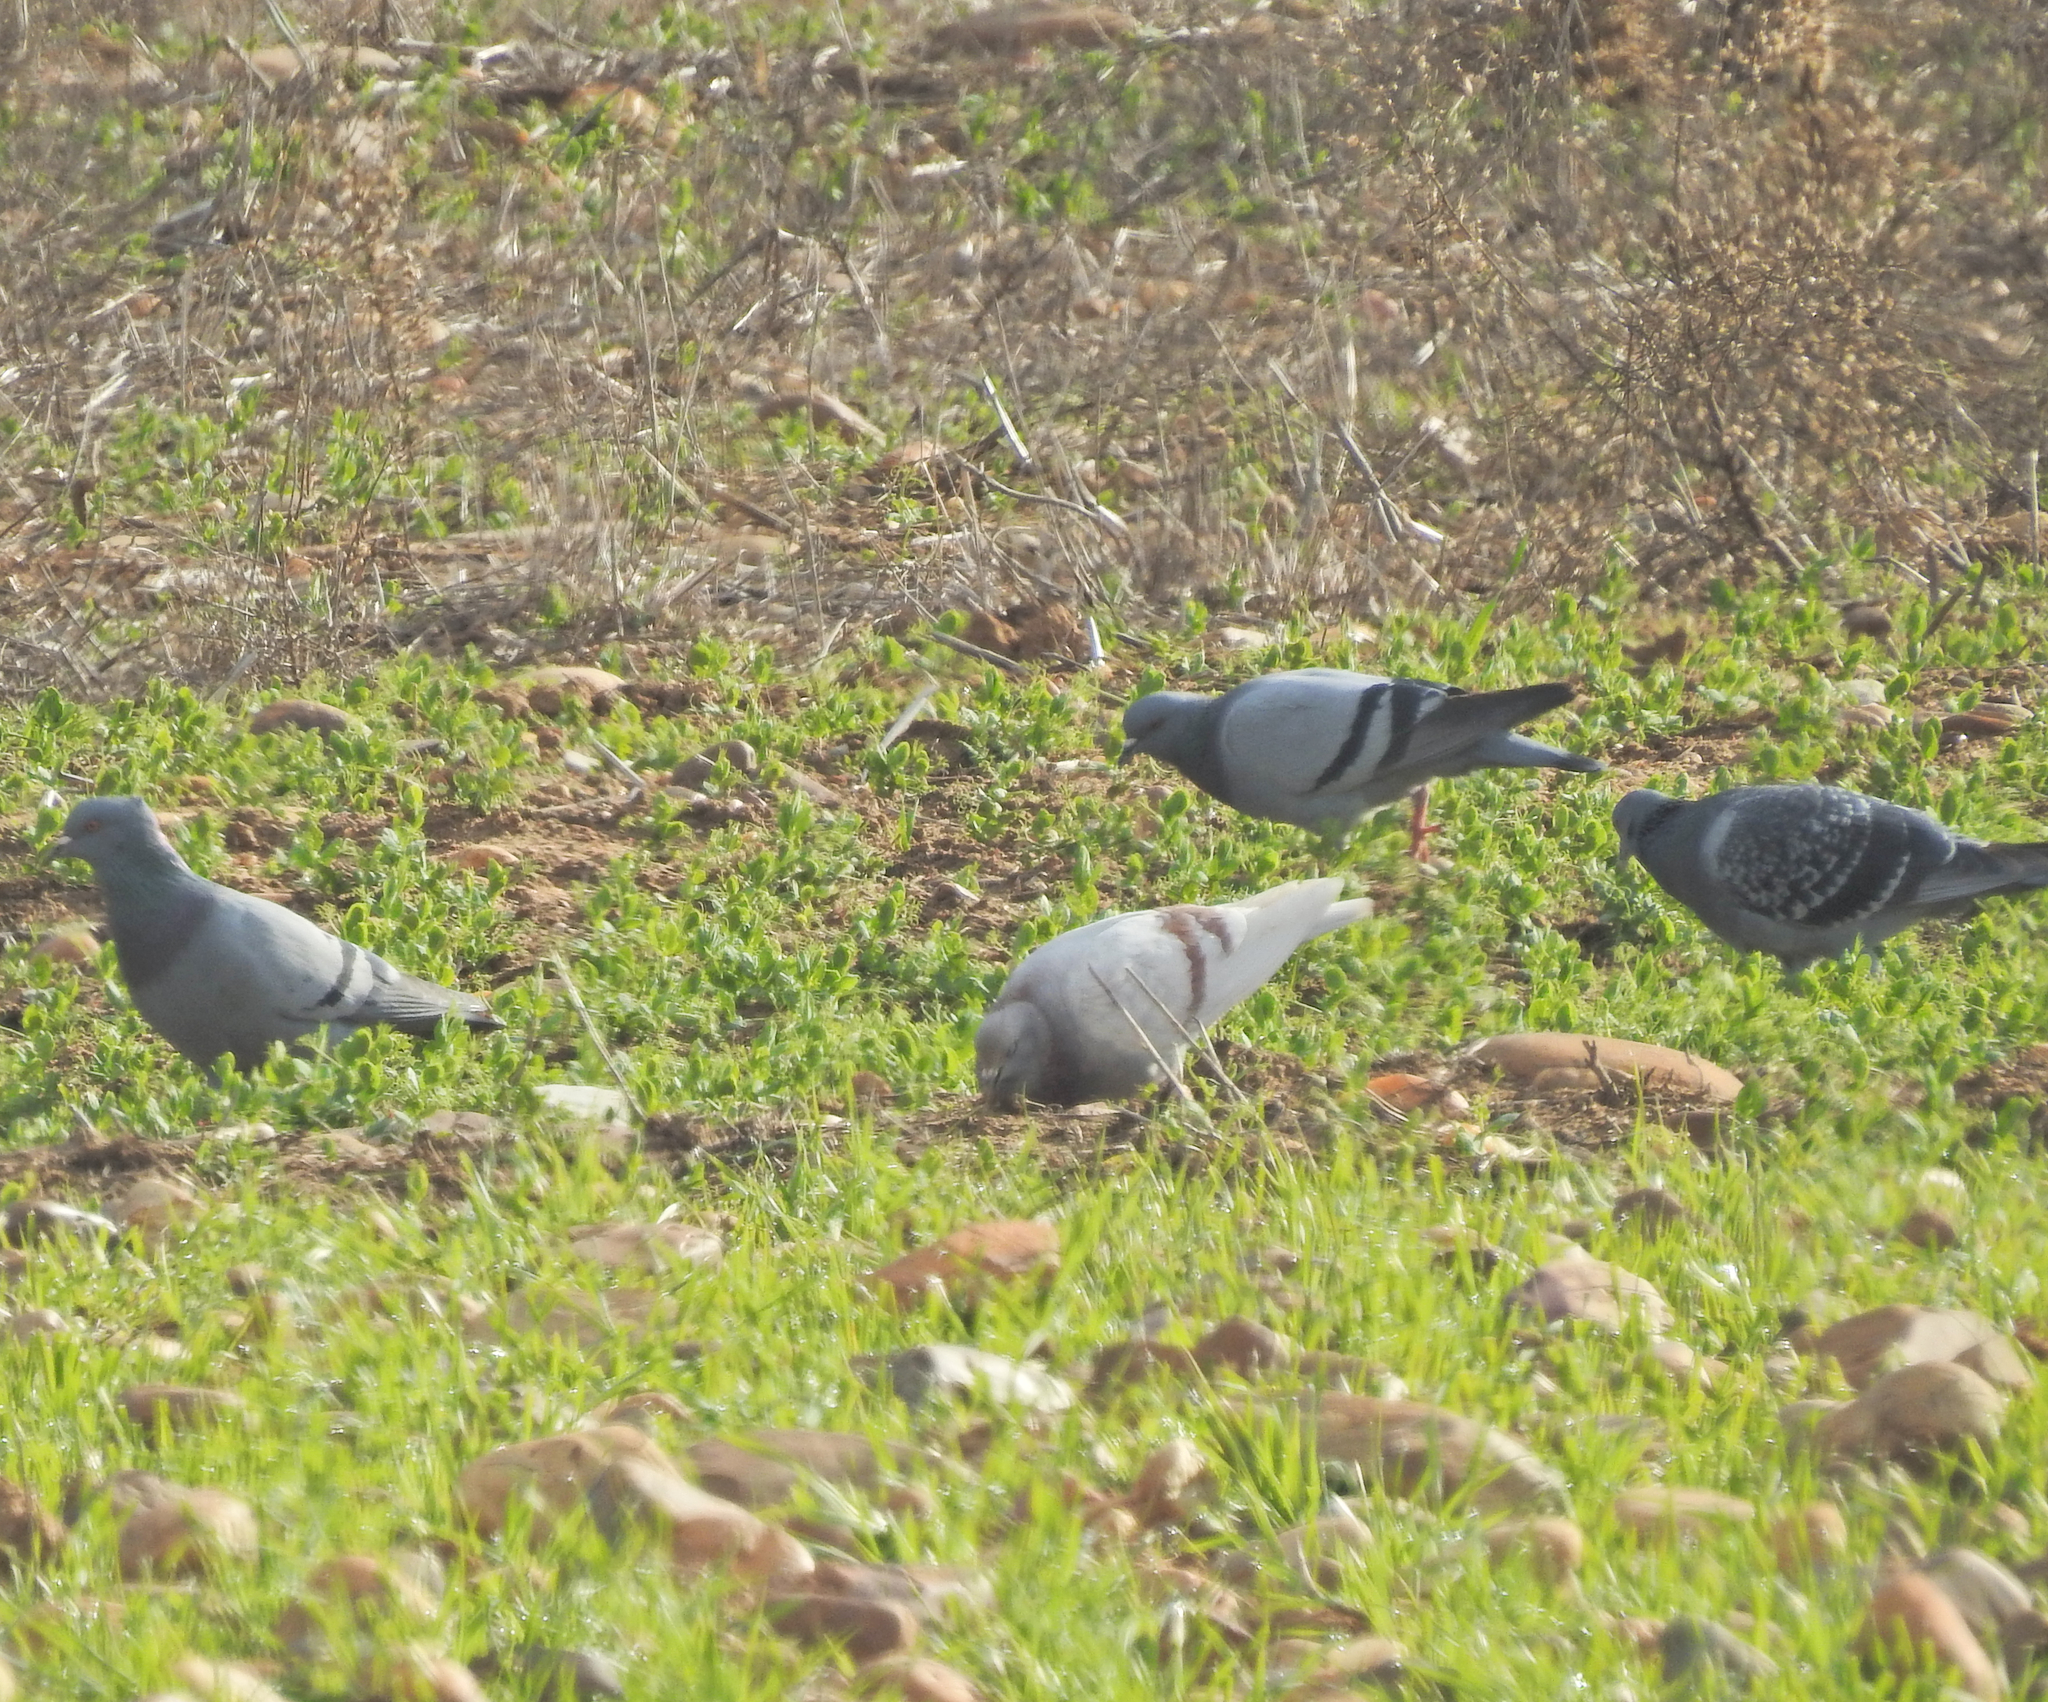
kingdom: Animalia
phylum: Chordata
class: Aves
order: Columbiformes
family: Columbidae
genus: Columba
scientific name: Columba livia
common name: Rock pigeon
